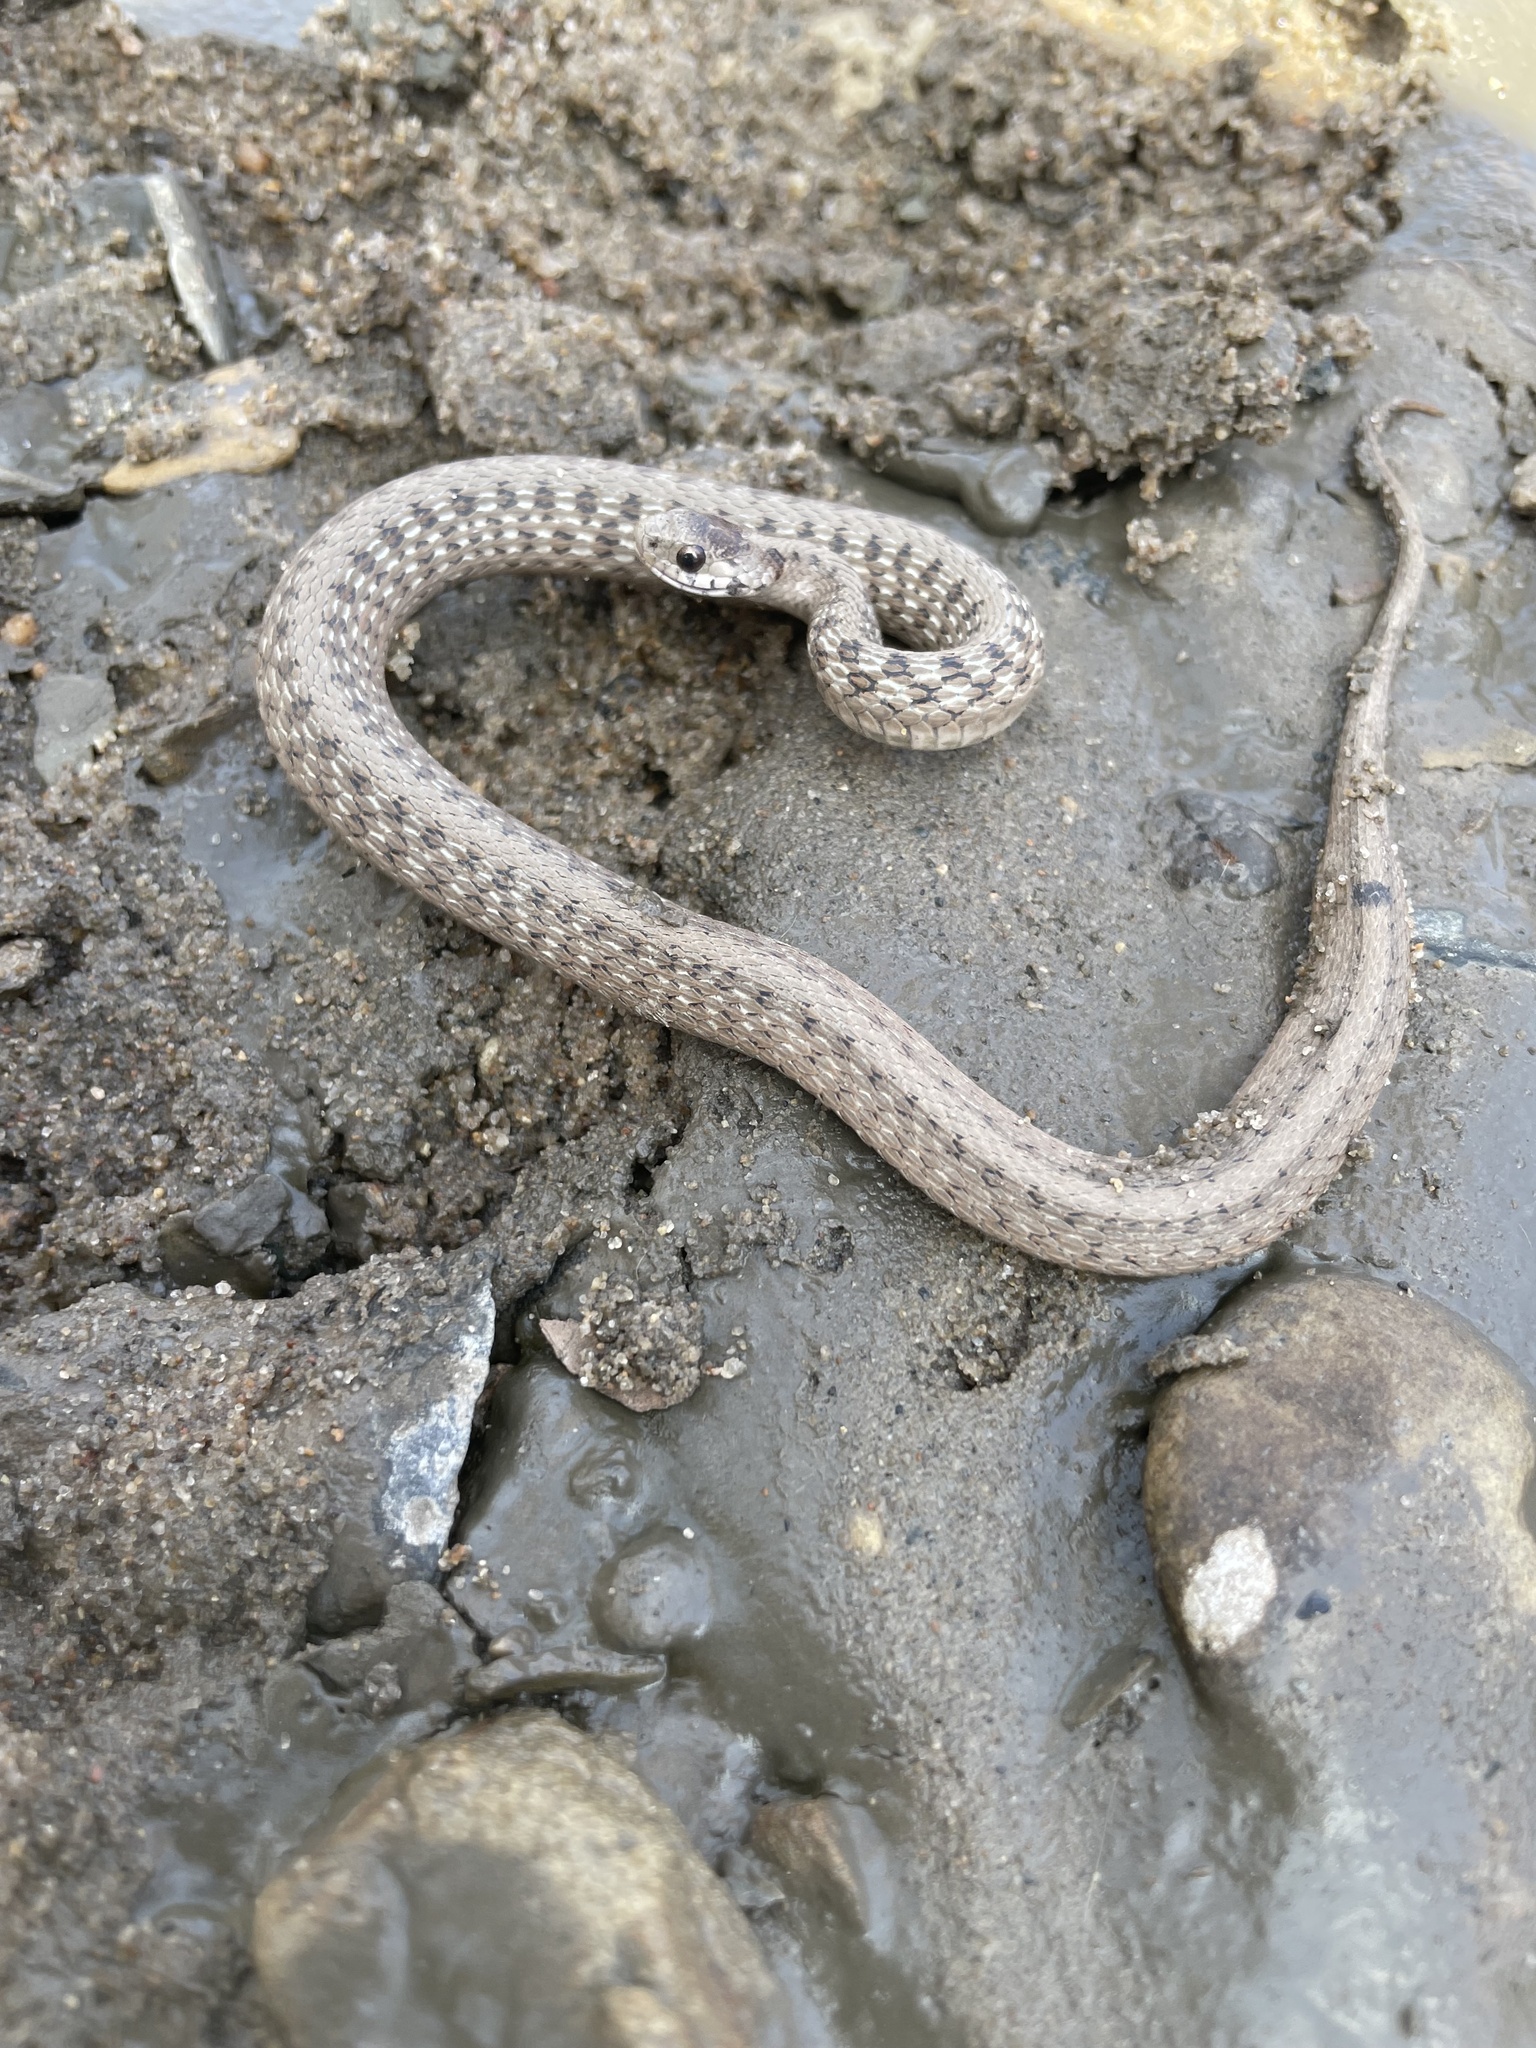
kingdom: Animalia
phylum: Chordata
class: Squamata
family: Colubridae
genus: Storeria
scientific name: Storeria dekayi
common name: (dekay’s) brown snake
